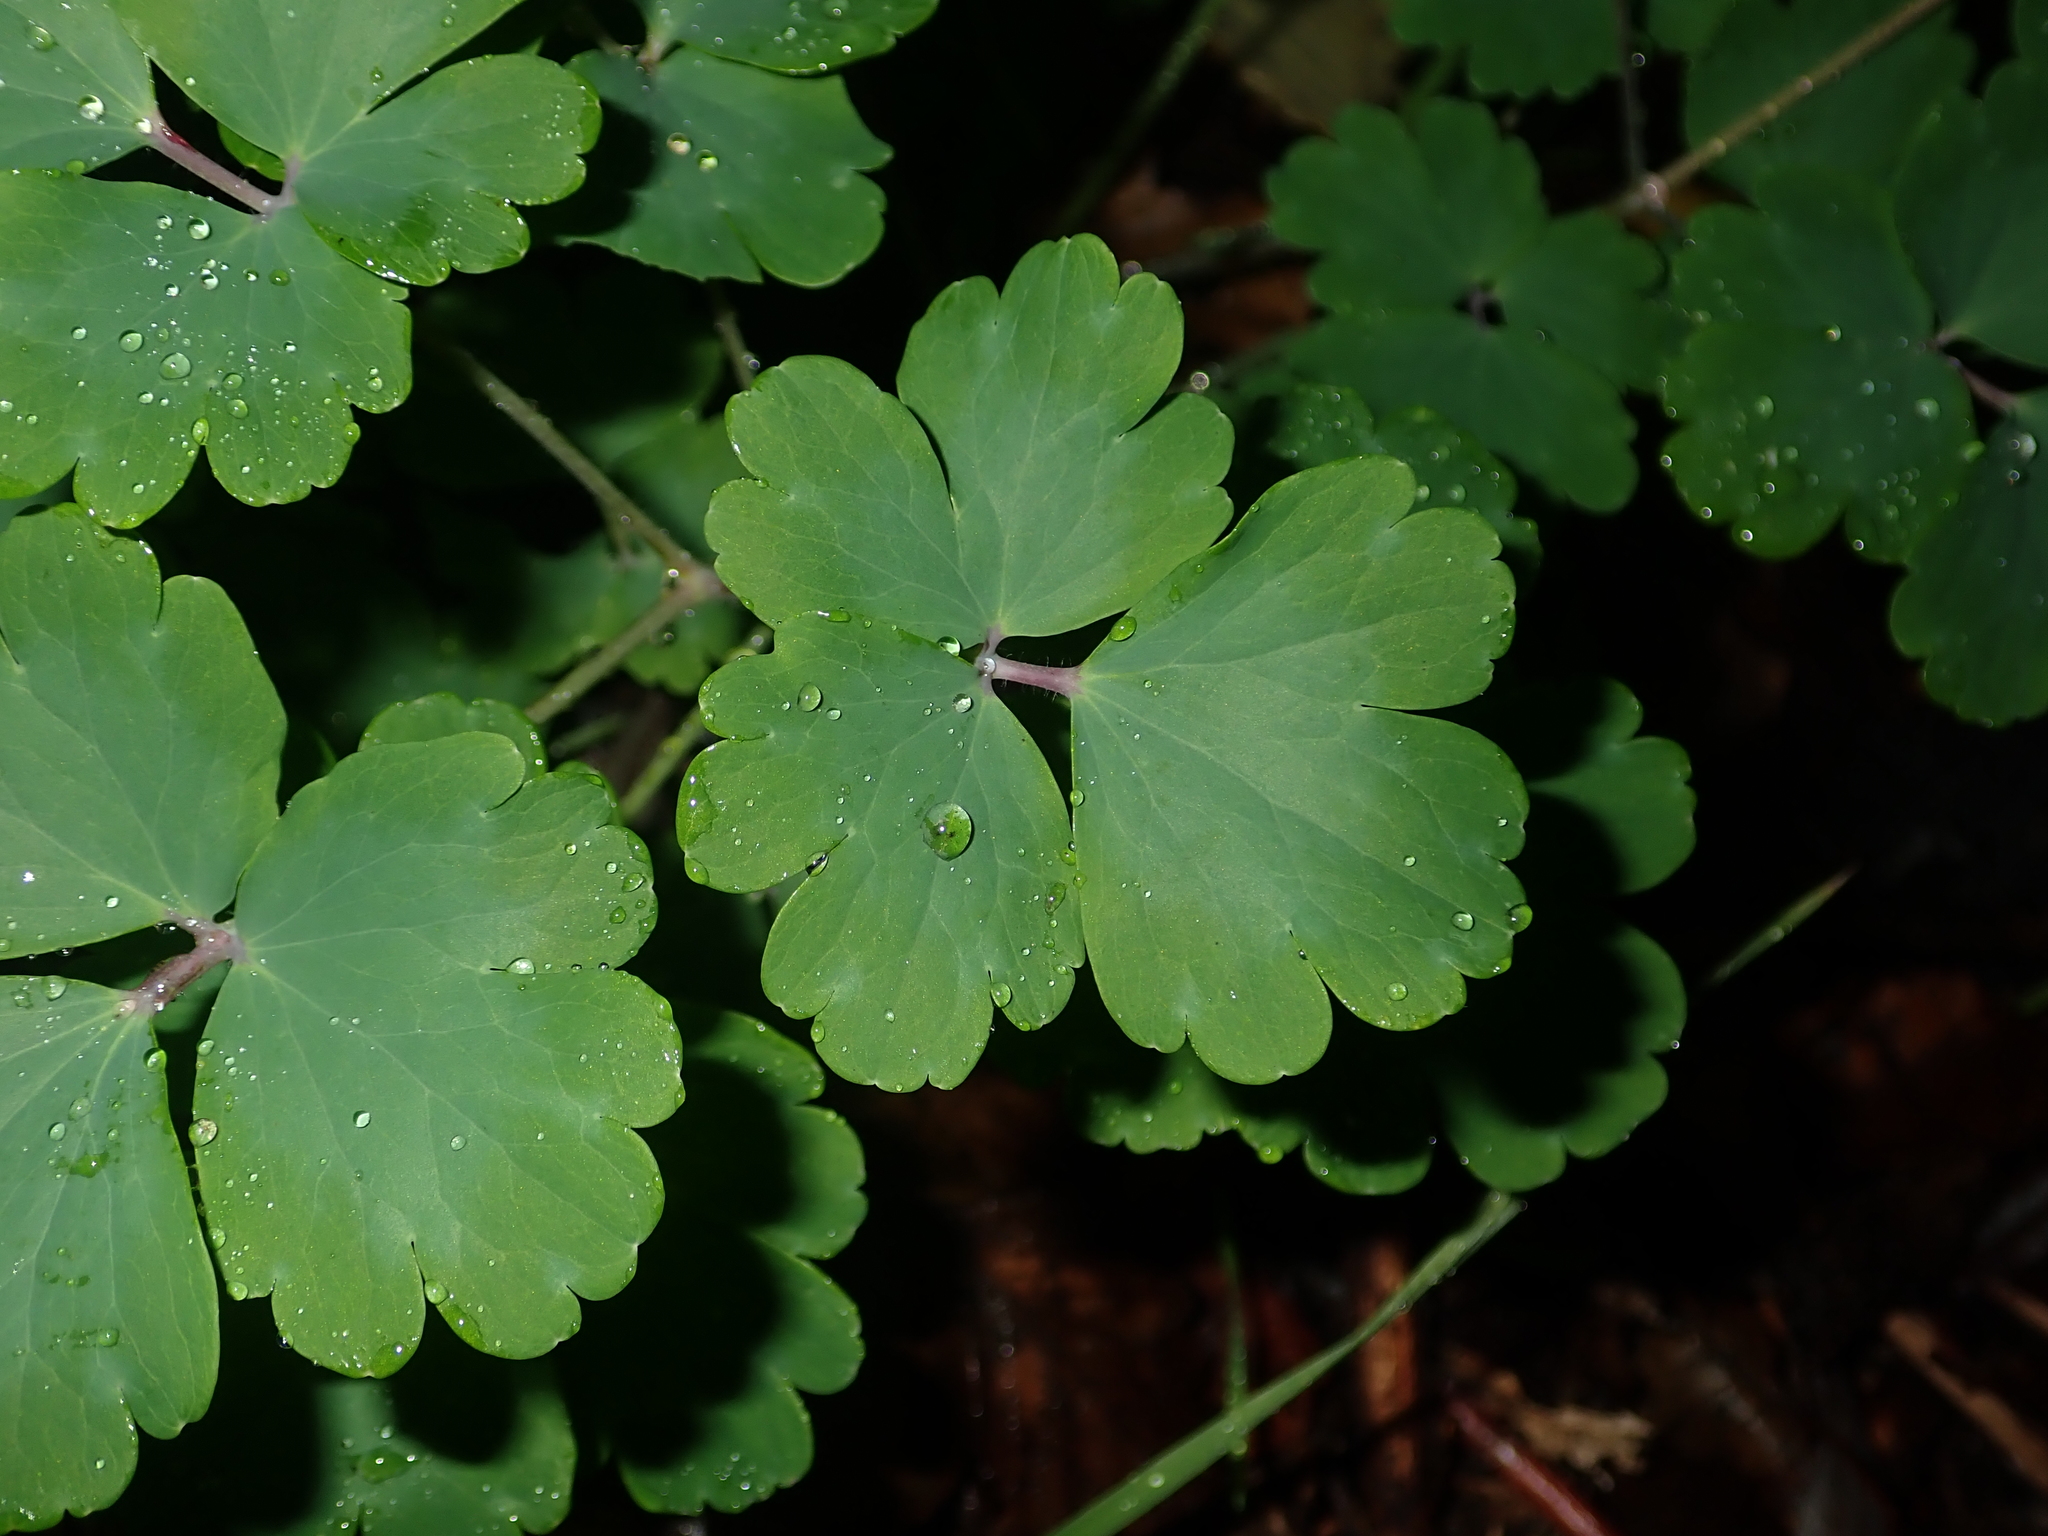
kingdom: Plantae
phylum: Tracheophyta
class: Magnoliopsida
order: Ranunculales
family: Ranunculaceae
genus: Aquilegia
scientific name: Aquilegia vulgaris
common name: Columbine
